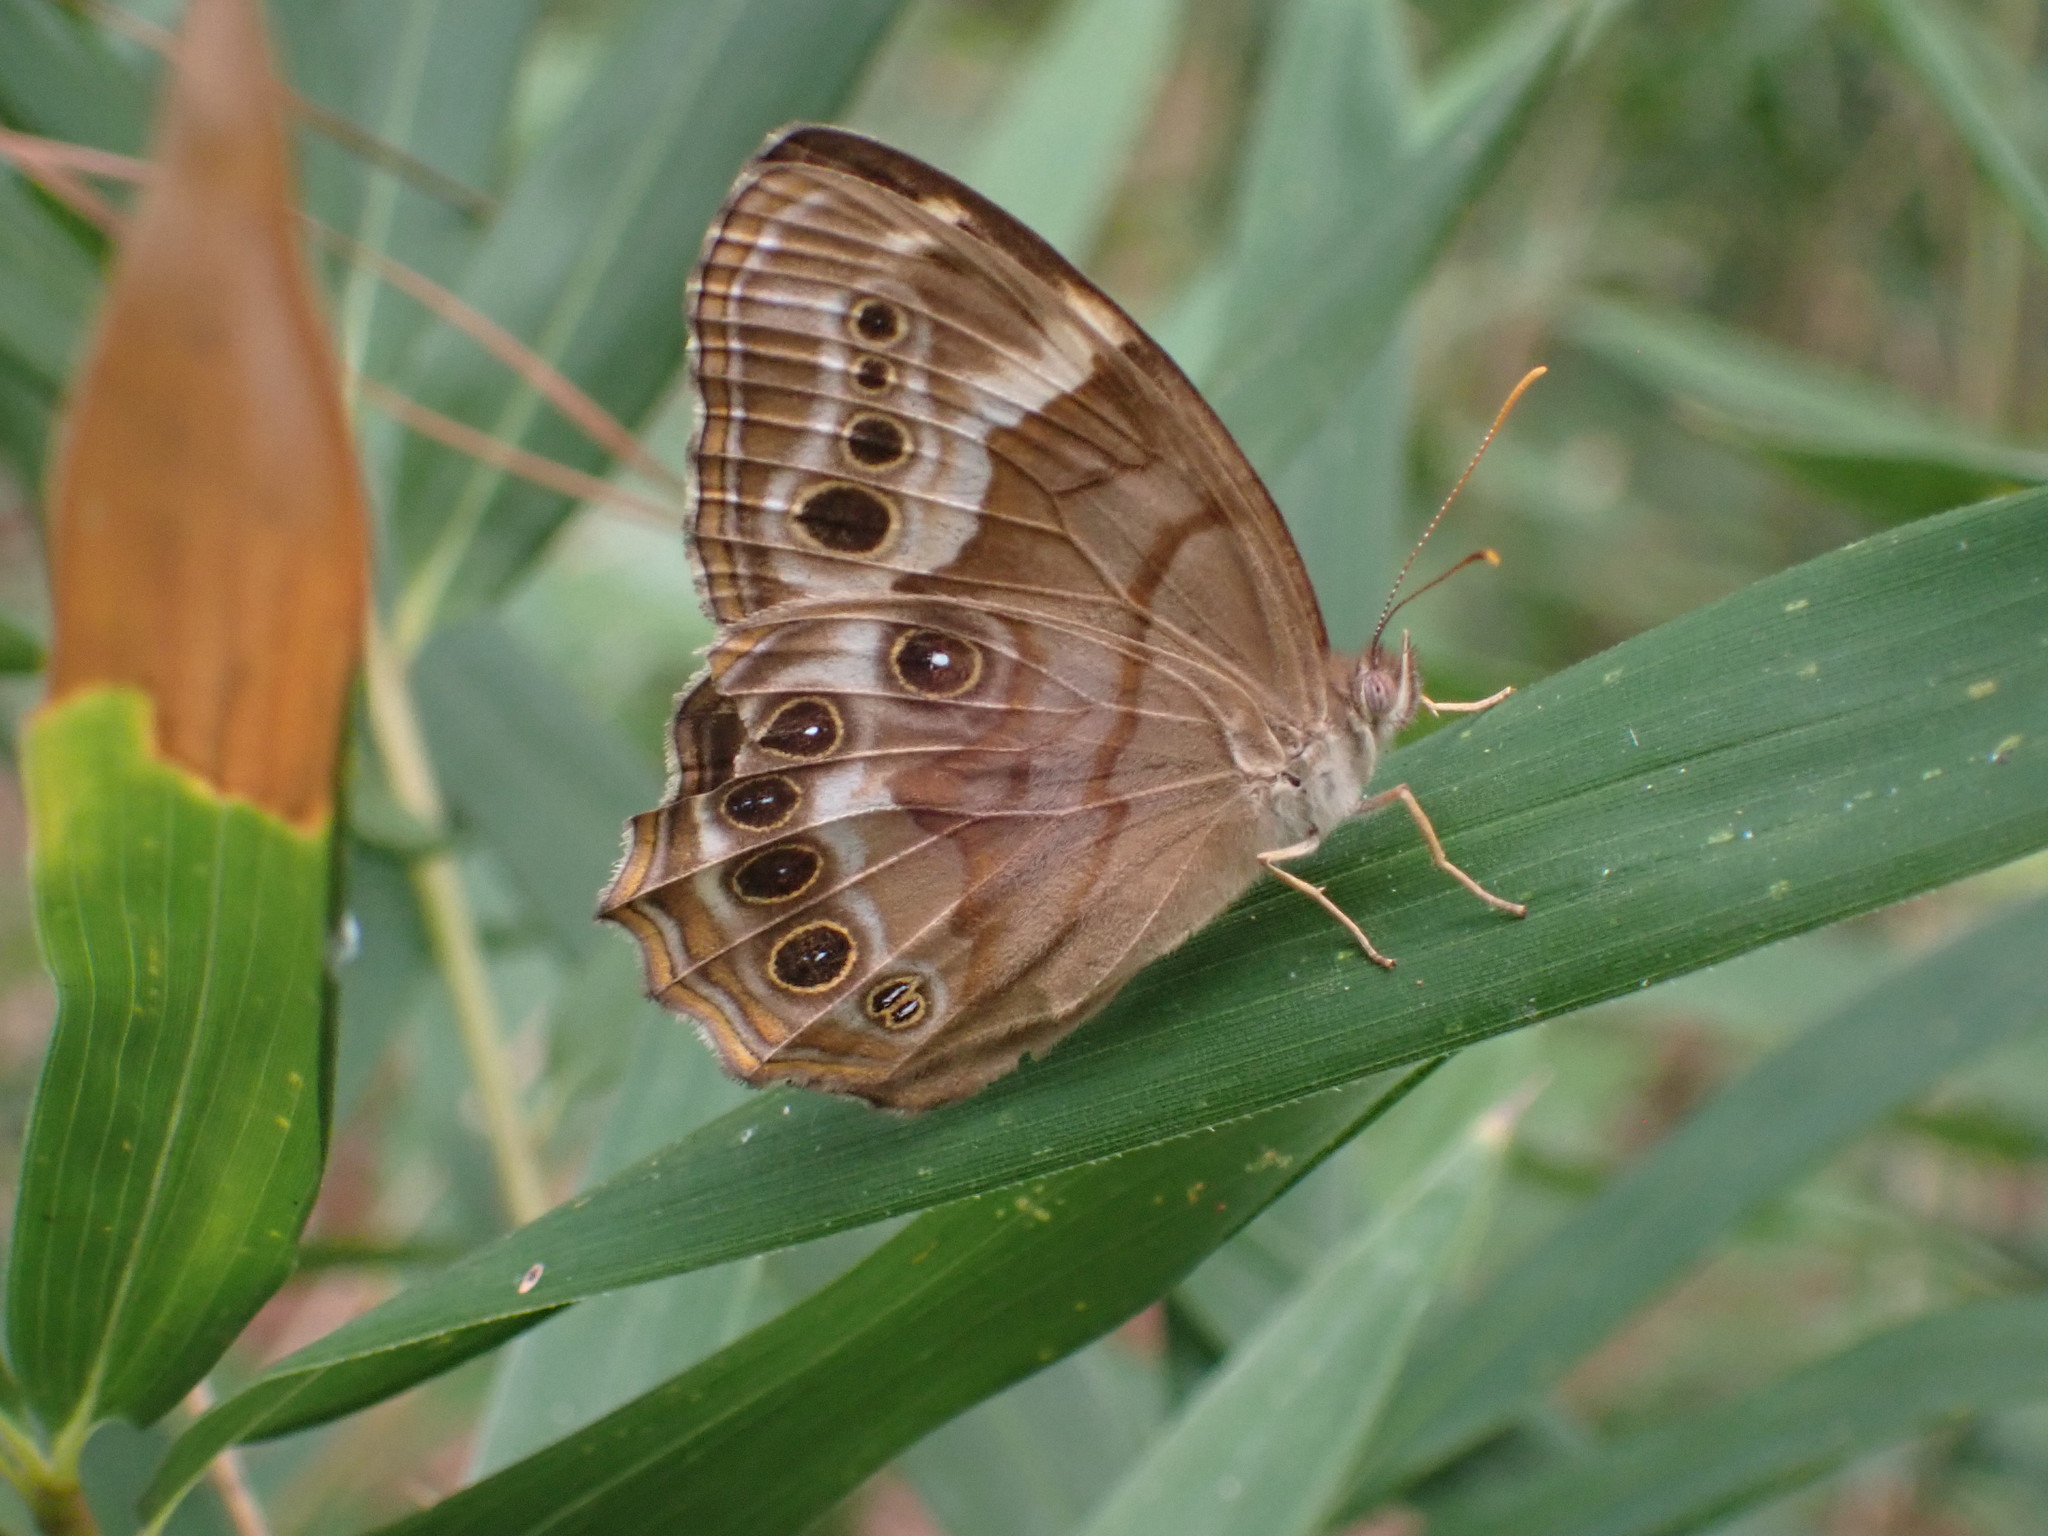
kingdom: Animalia
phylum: Arthropoda
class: Insecta
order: Lepidoptera
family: Nymphalidae
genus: Enodia
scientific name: Enodia portlandia
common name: Southern pearly-eye
